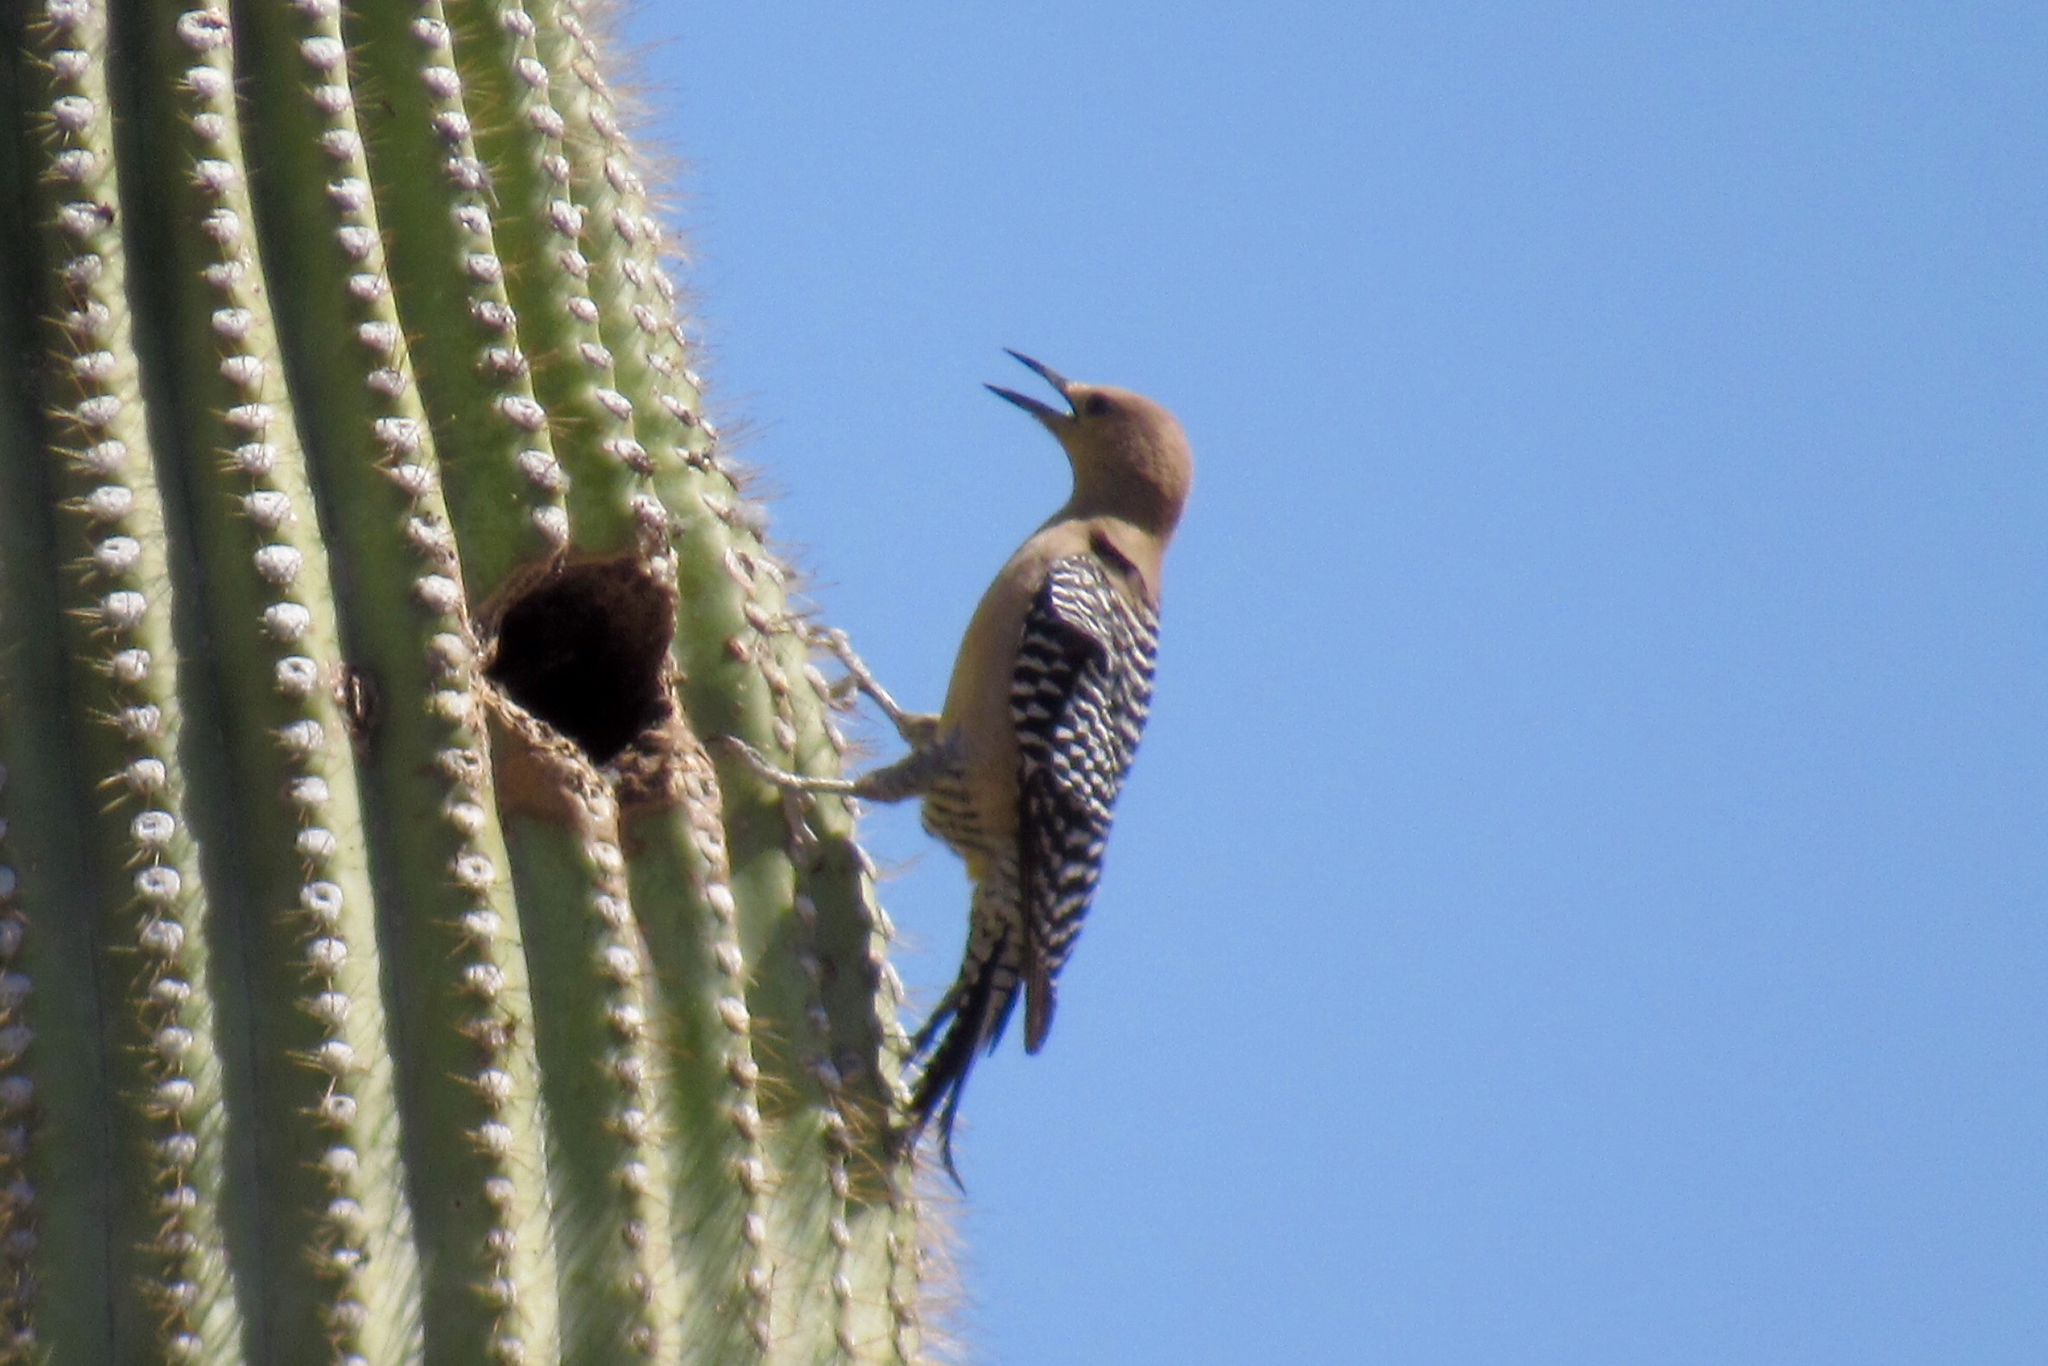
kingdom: Animalia
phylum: Chordata
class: Aves
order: Piciformes
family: Picidae
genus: Melanerpes
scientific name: Melanerpes uropygialis
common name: Gila woodpecker
